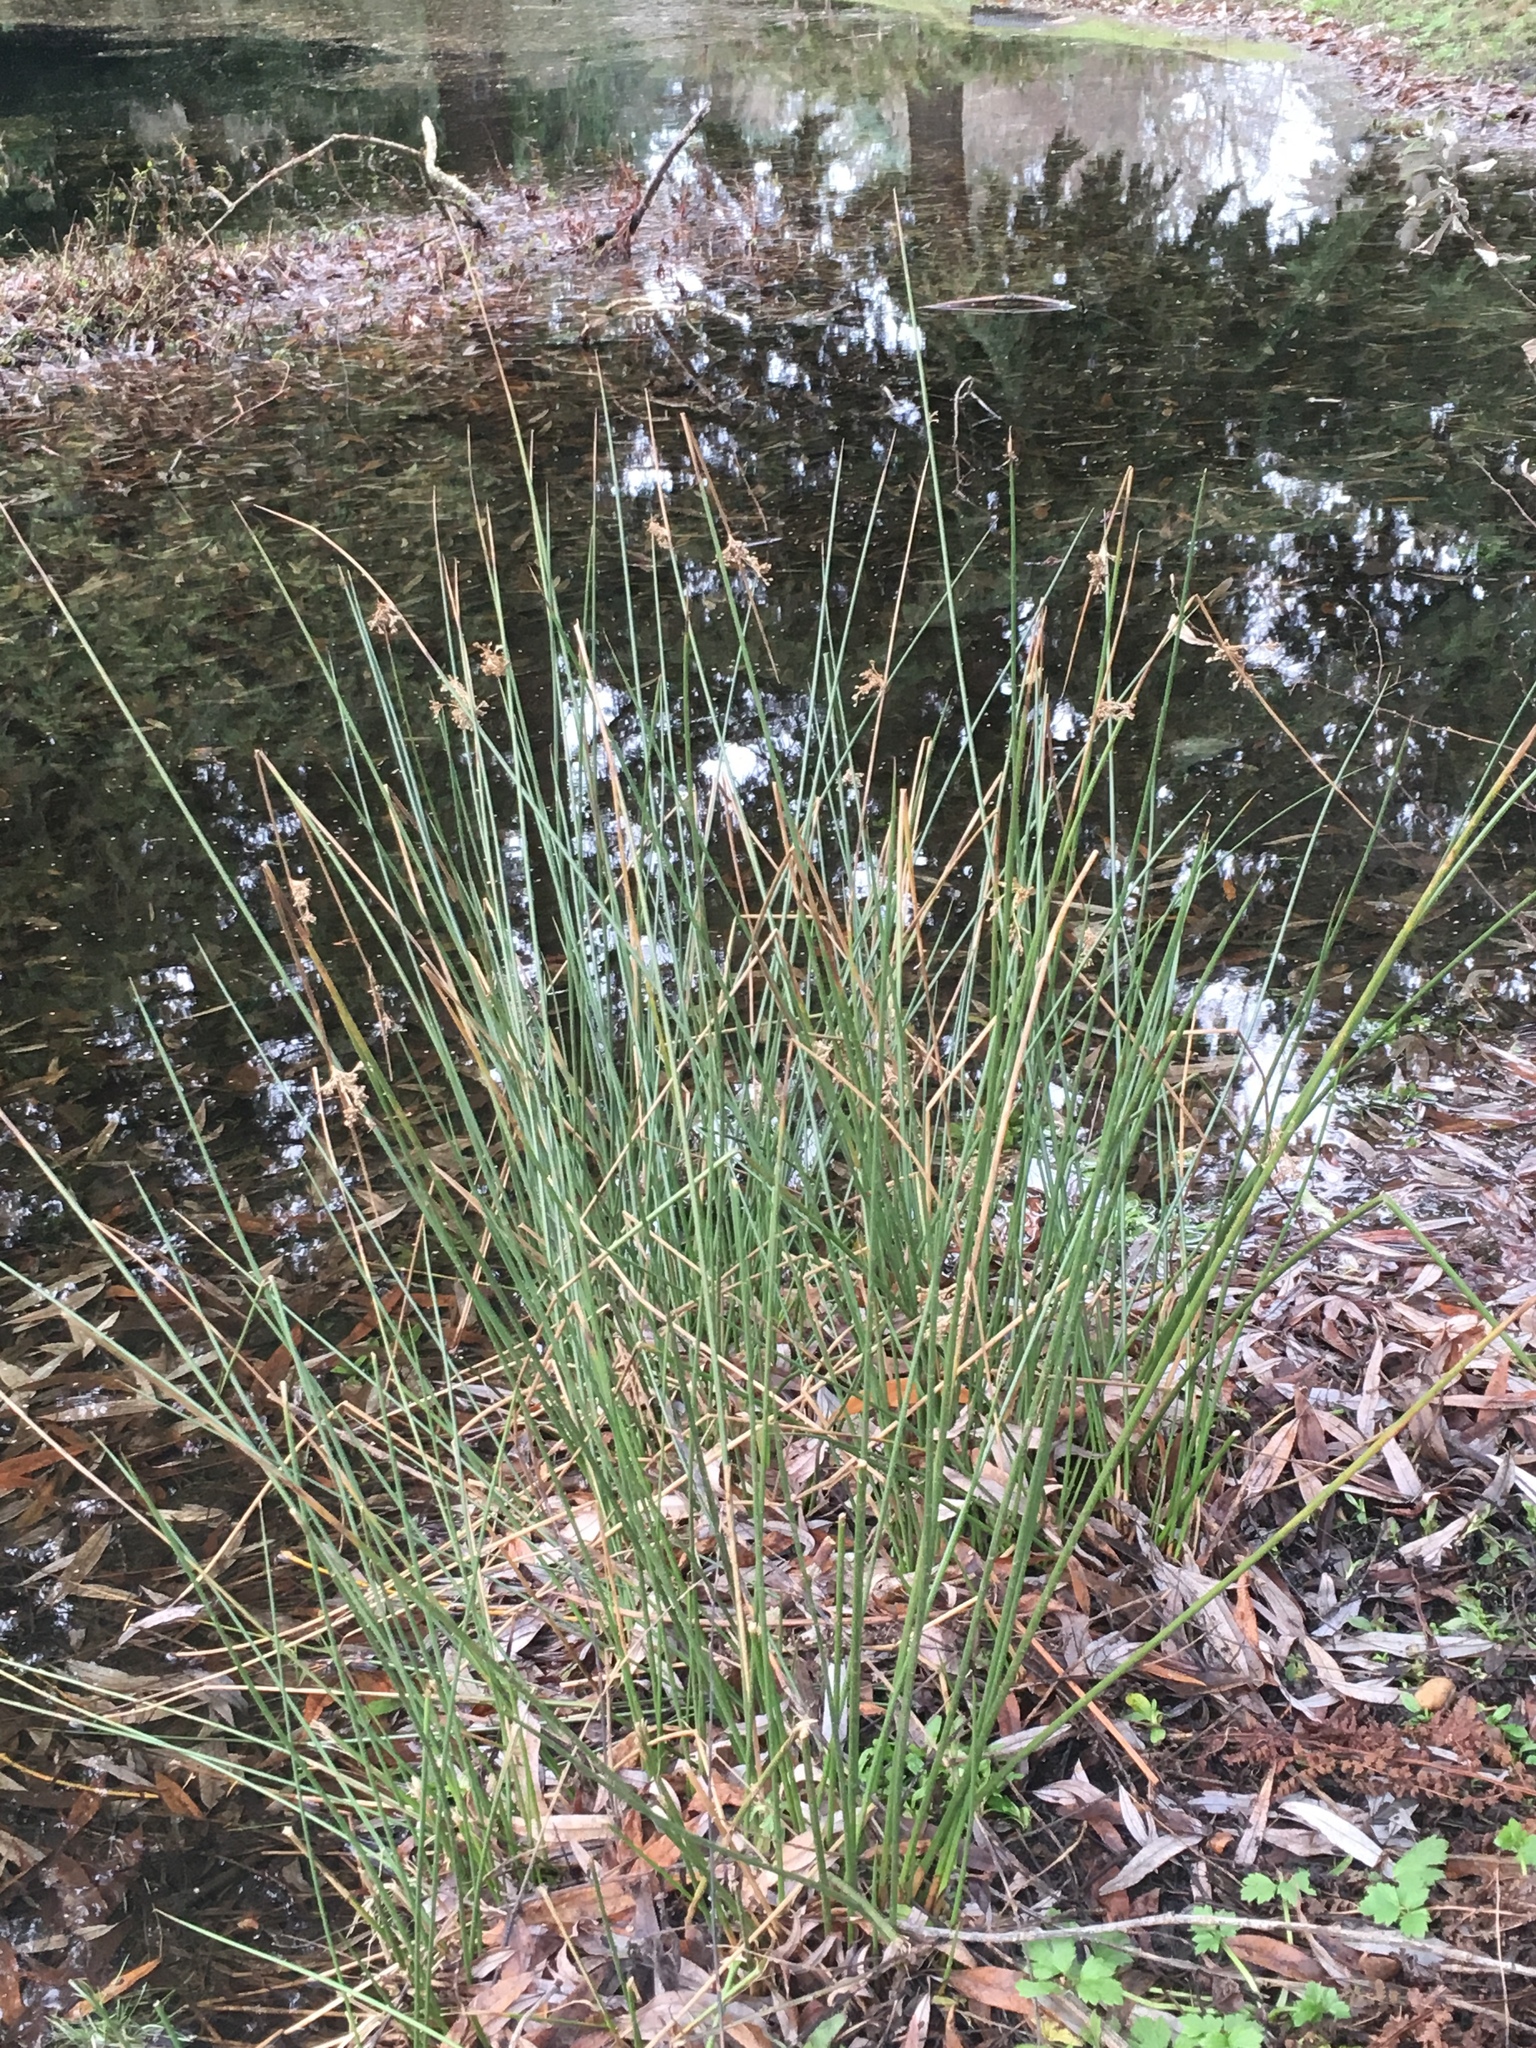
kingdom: Plantae
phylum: Tracheophyta
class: Liliopsida
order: Poales
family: Juncaceae
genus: Juncus
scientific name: Juncus effusus
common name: Soft rush
